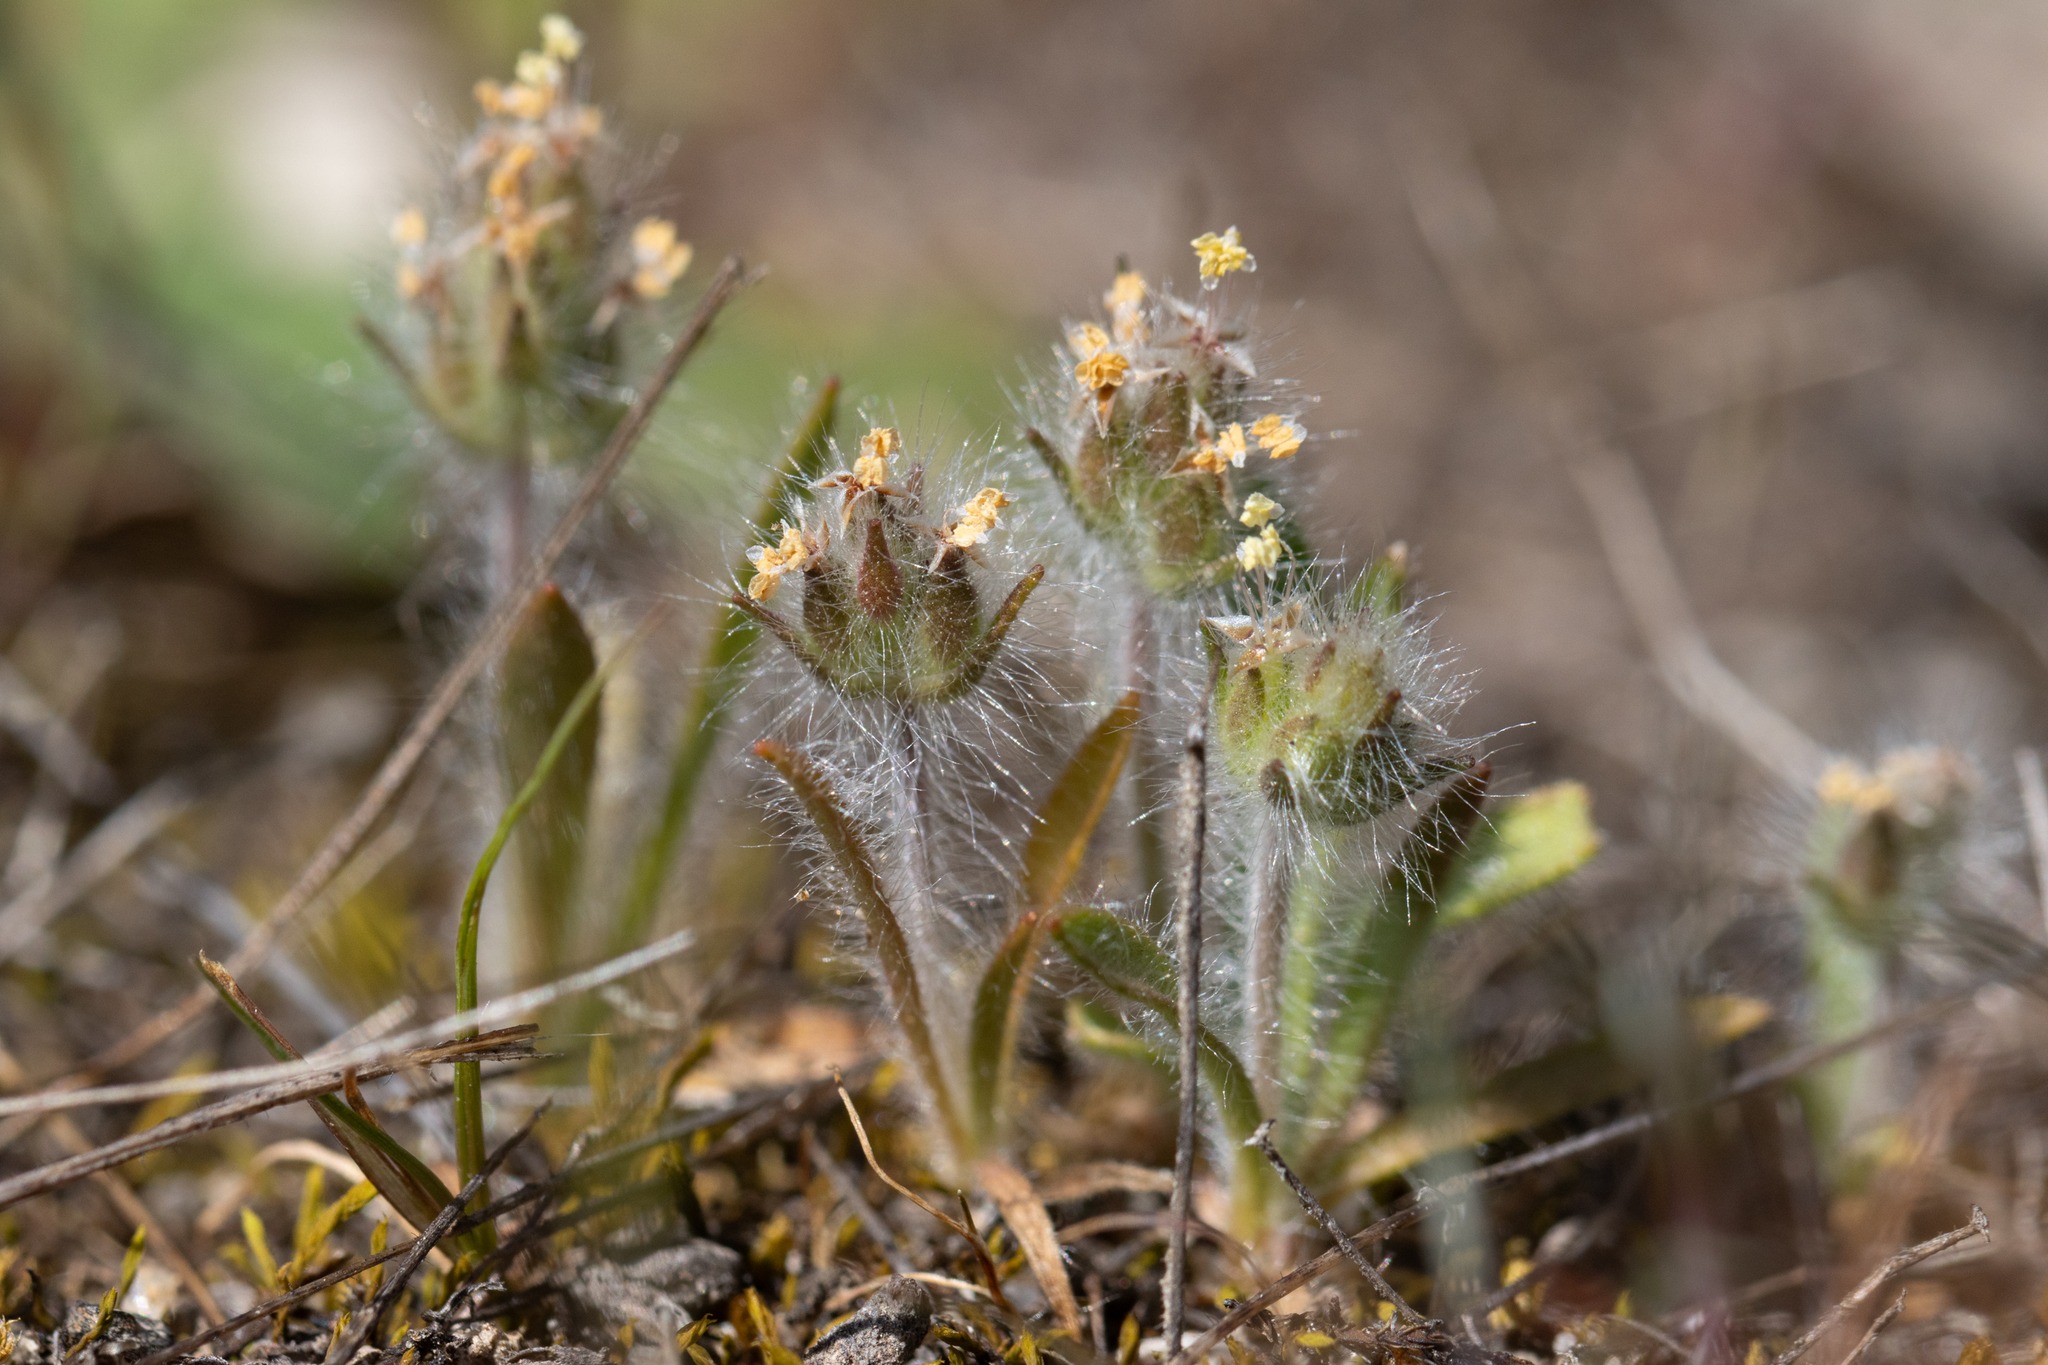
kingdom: Plantae
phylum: Tracheophyta
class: Magnoliopsida
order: Lamiales
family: Plantaginaceae
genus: Plantago
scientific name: Plantago bellardii
